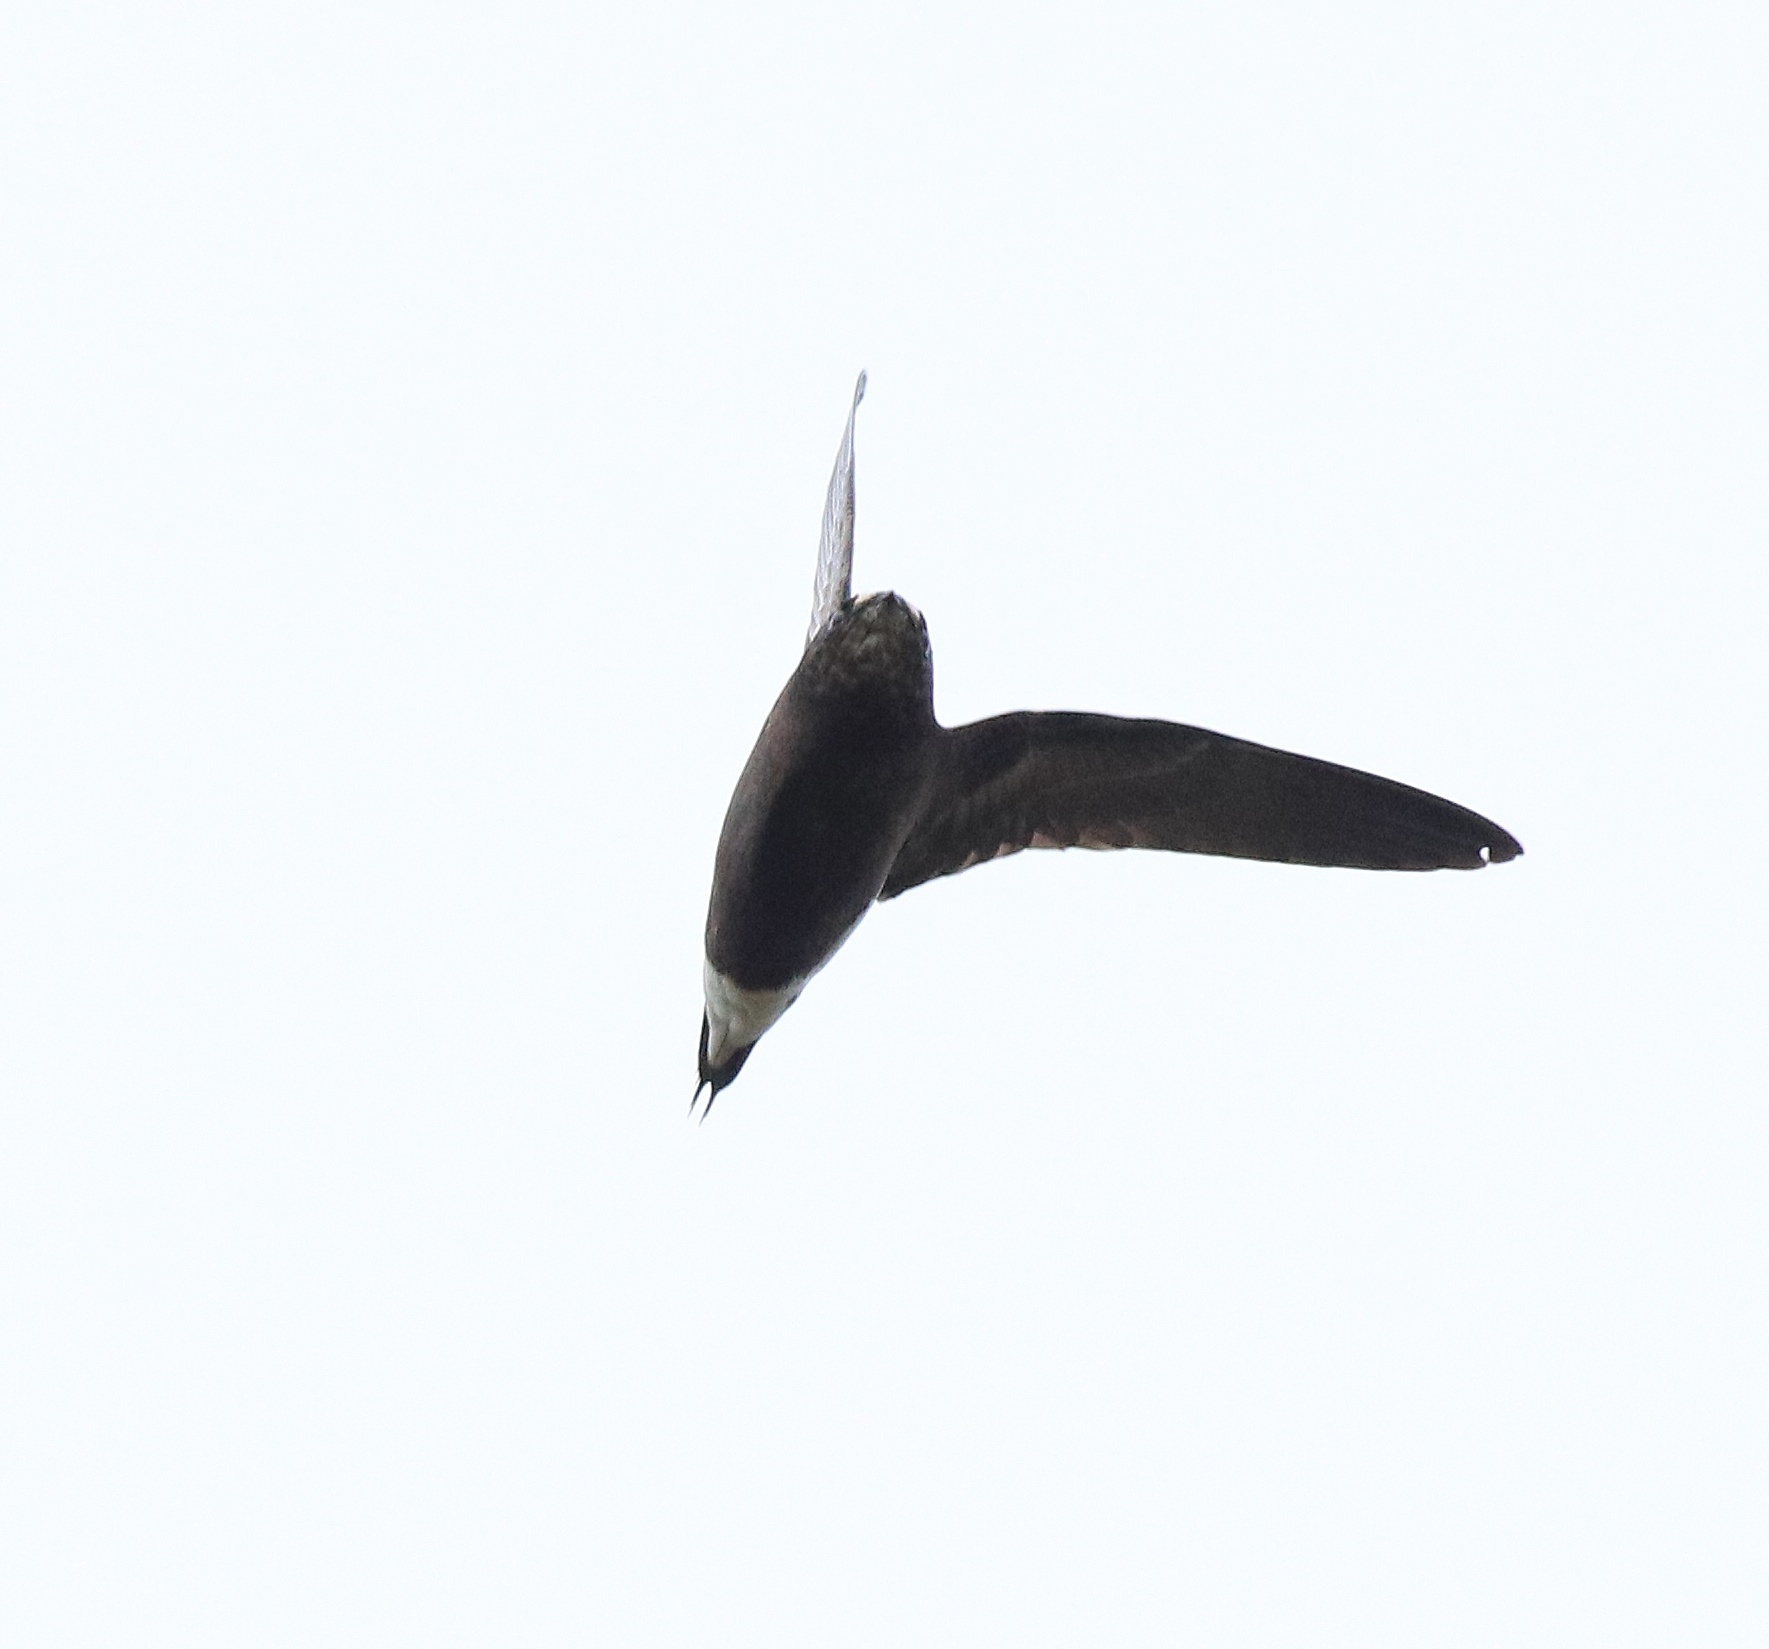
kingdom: Animalia
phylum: Chordata
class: Aves
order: Apodiformes
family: Apodidae
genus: Hirundapus
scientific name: Hirundapus giganteus
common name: Brown-backed needletail
